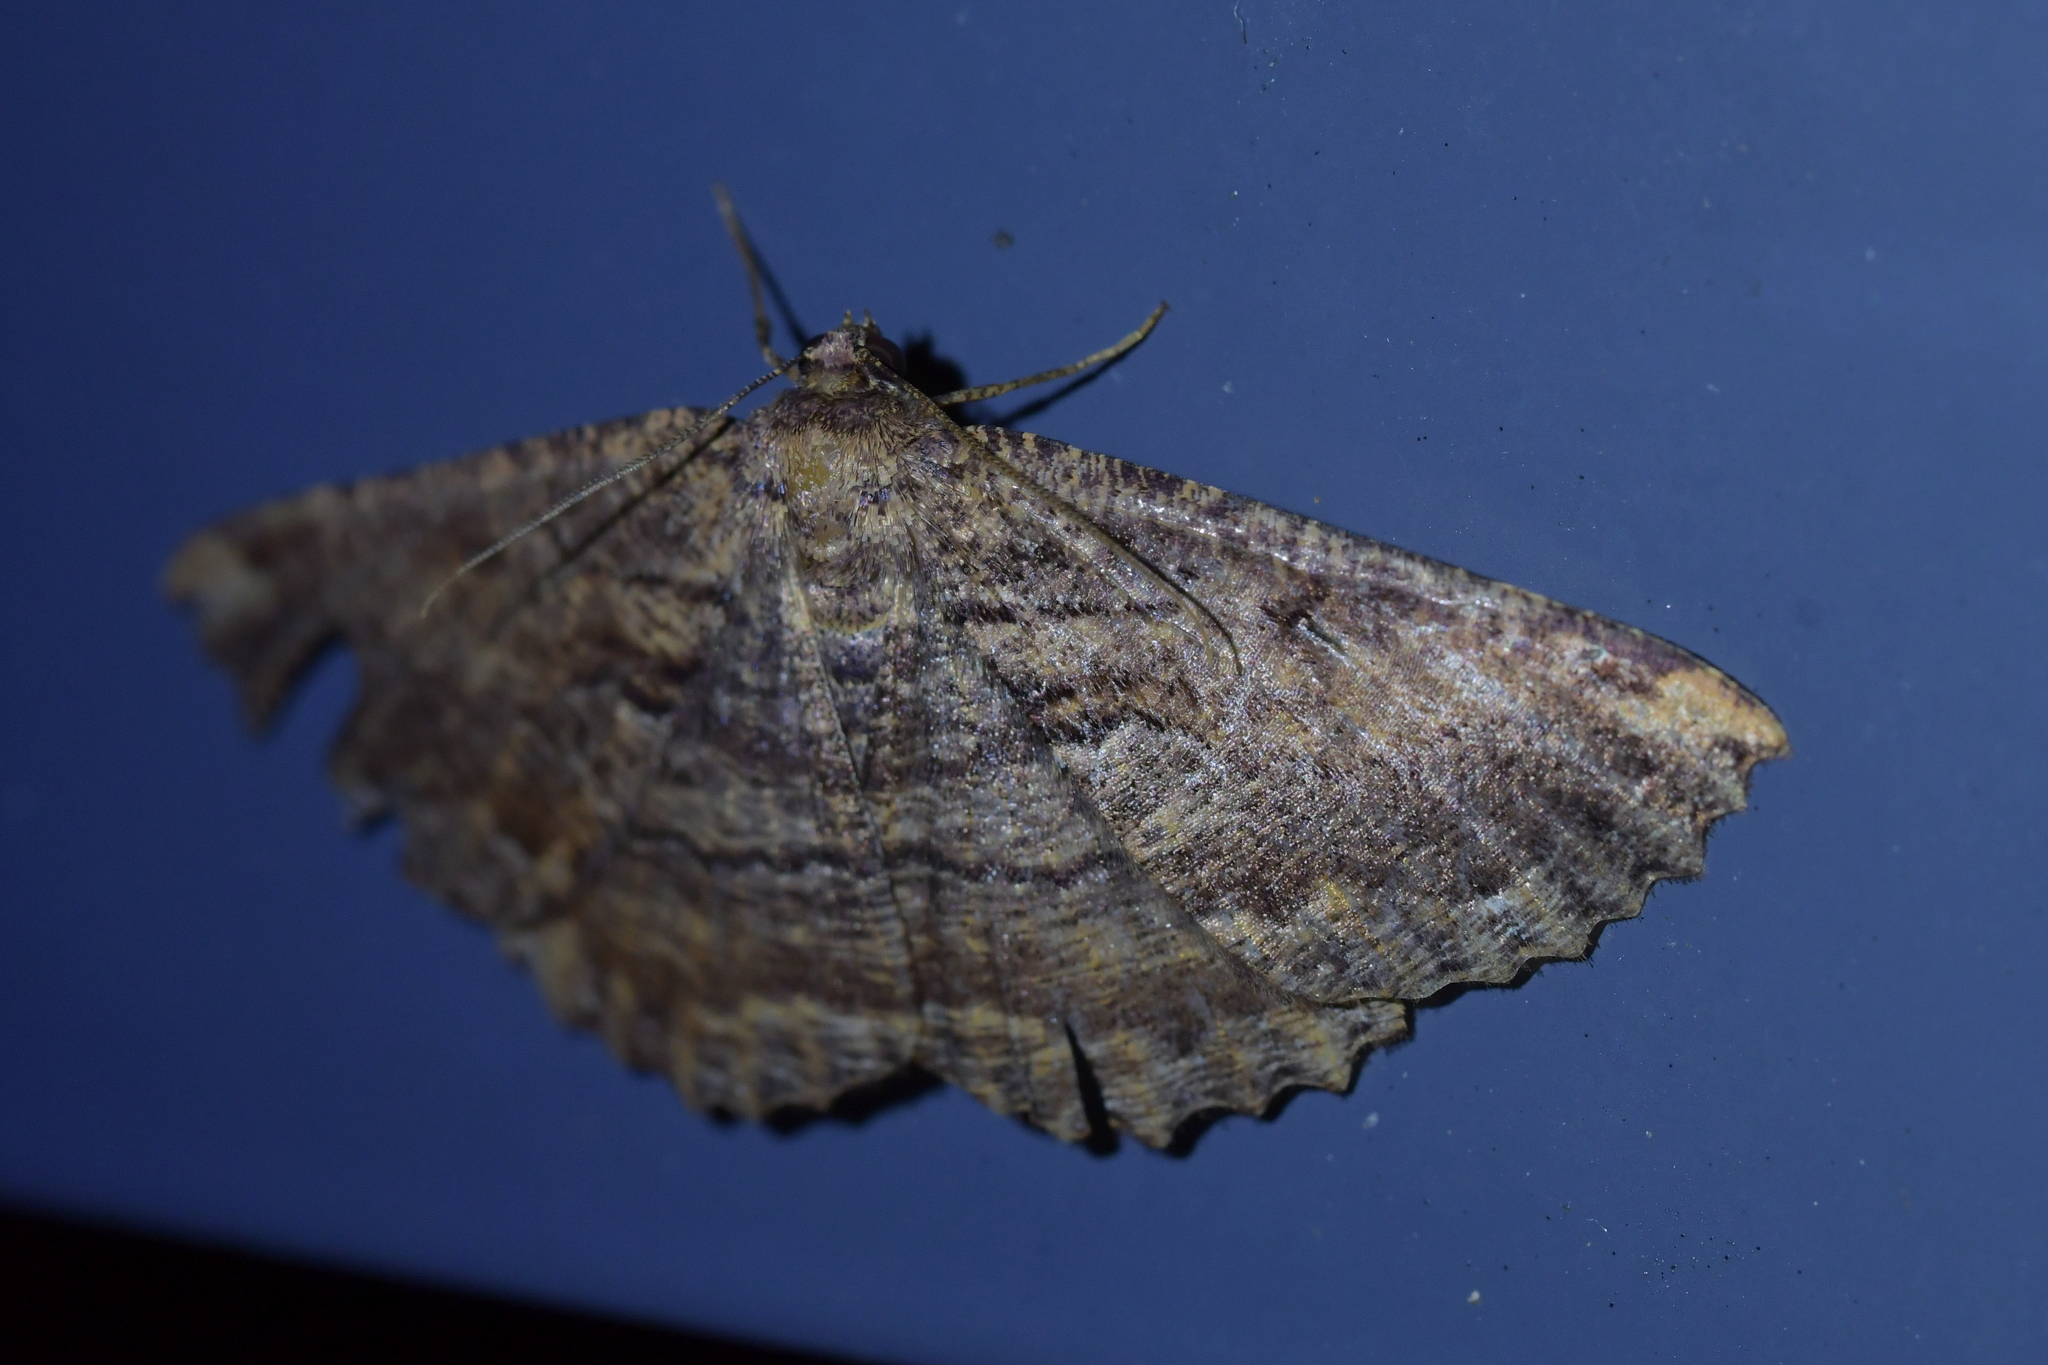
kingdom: Animalia
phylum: Arthropoda
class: Insecta
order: Lepidoptera
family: Geometridae
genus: Gellonia
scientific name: Gellonia dejectaria
